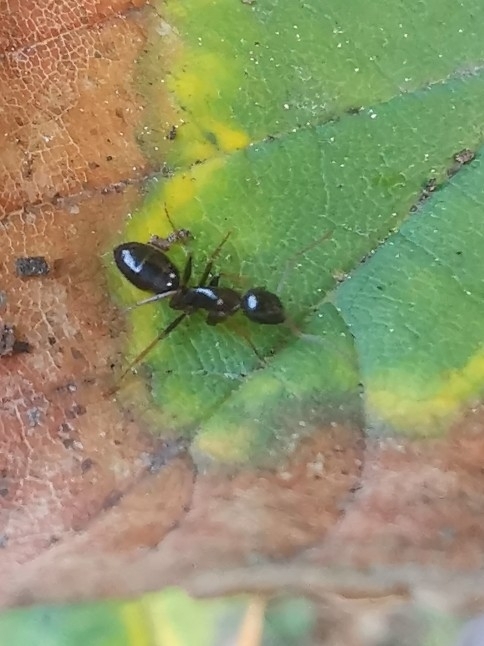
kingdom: Animalia
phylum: Arthropoda
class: Insecta
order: Hymenoptera
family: Formicidae
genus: Camponotus
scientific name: Camponotus fallax
